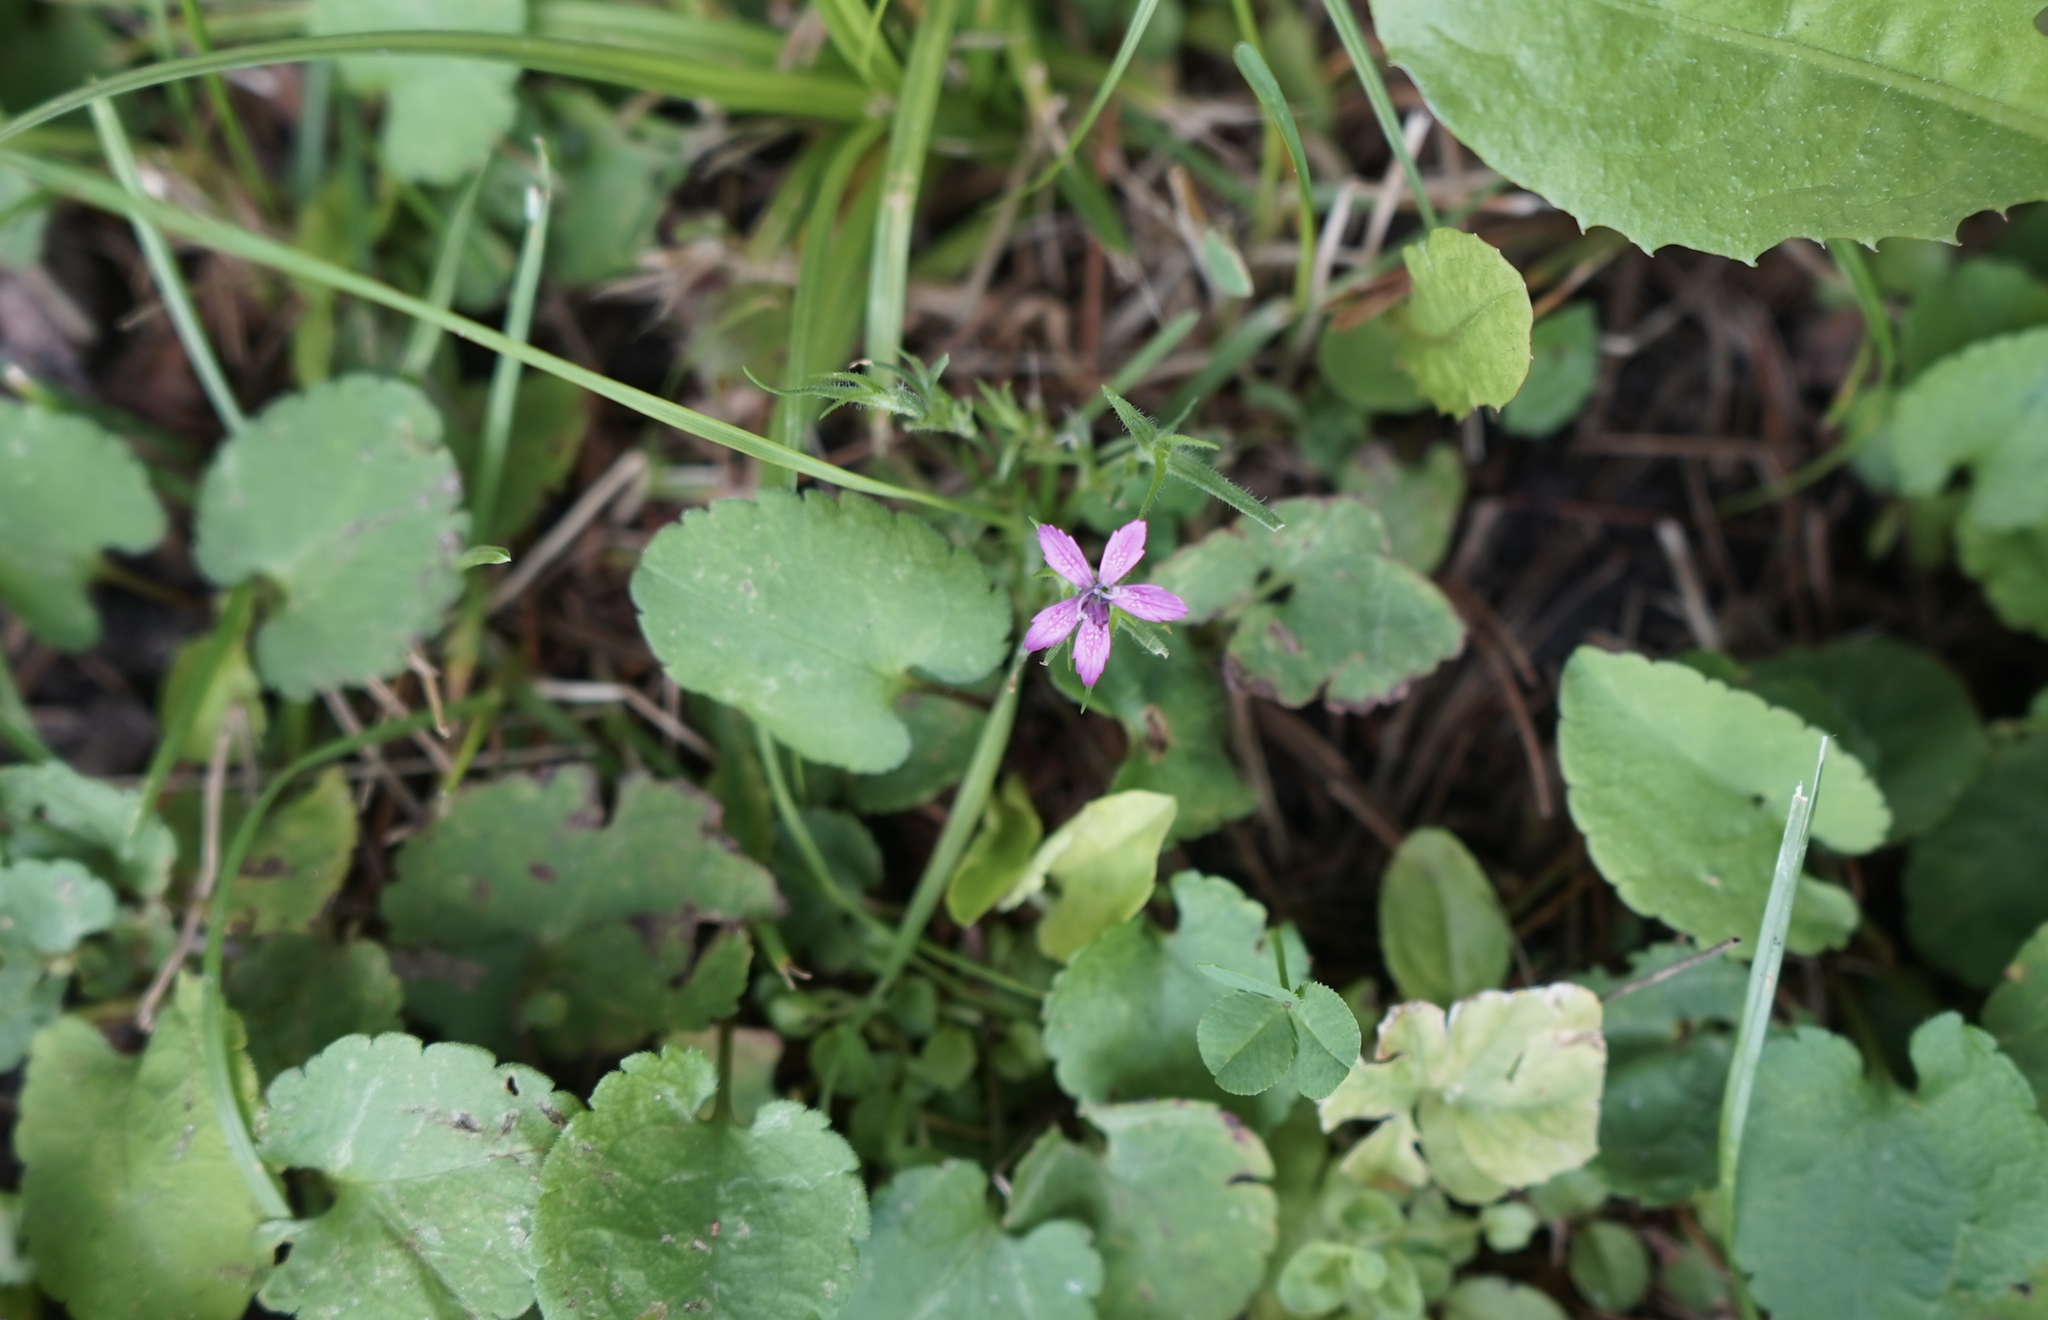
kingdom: Plantae
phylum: Tracheophyta
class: Magnoliopsida
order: Caryophyllales
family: Caryophyllaceae
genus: Dianthus
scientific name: Dianthus armeria
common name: Deptford pink
